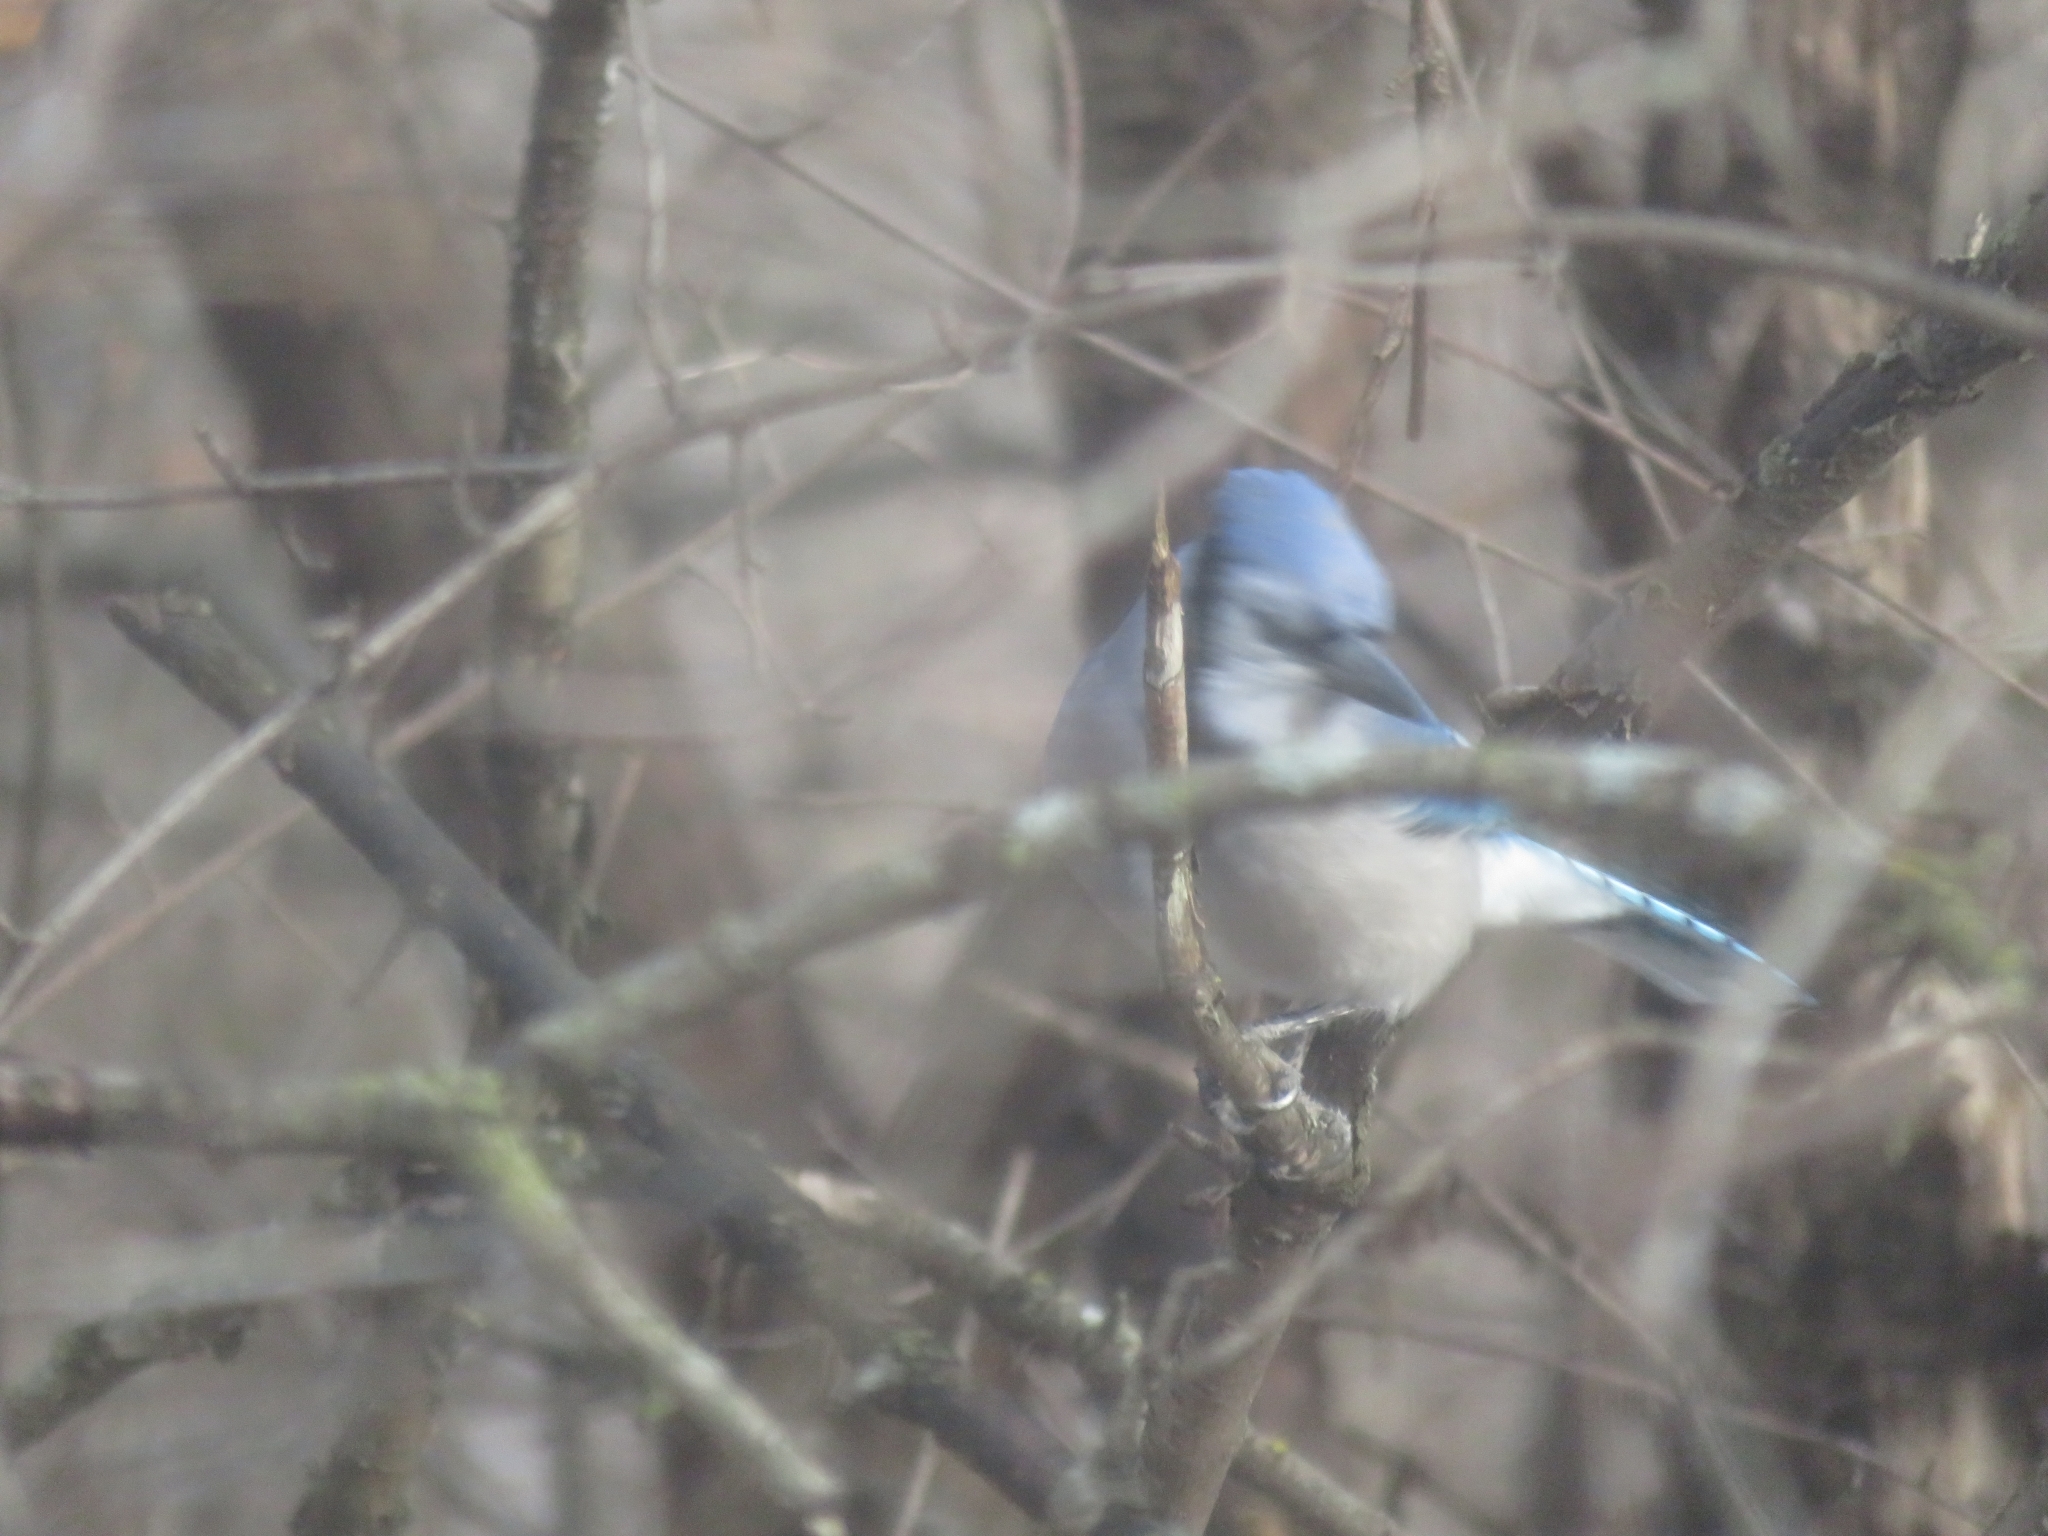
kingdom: Animalia
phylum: Chordata
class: Aves
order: Passeriformes
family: Corvidae
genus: Cyanocitta
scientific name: Cyanocitta cristata
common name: Blue jay
